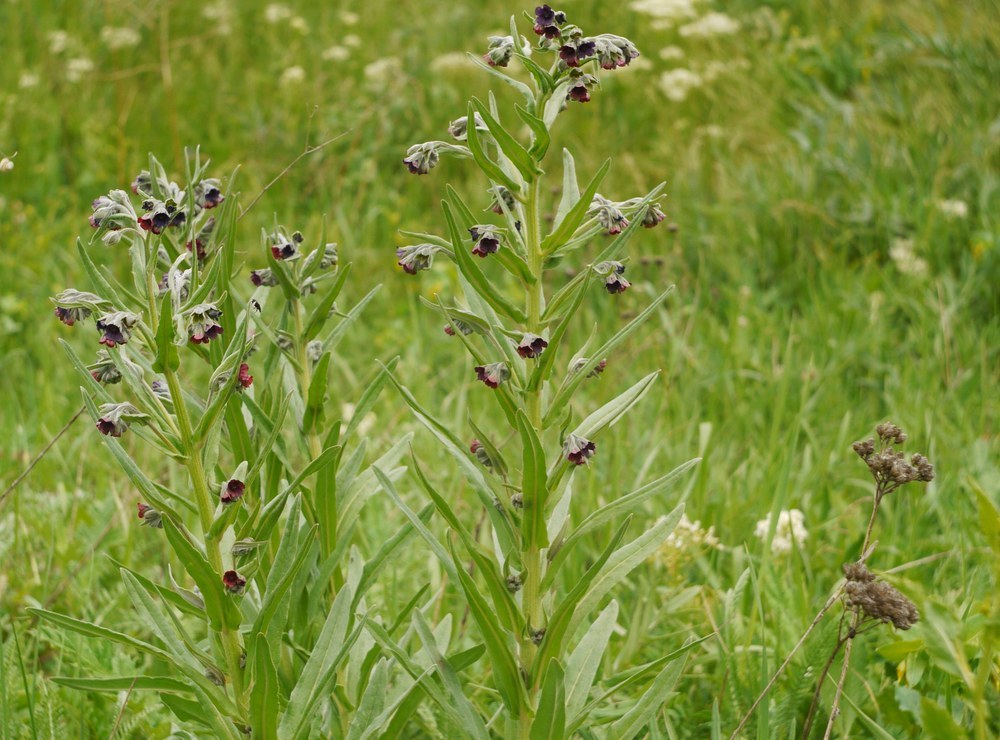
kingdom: Plantae
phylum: Tracheophyta
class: Magnoliopsida
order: Boraginales
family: Boraginaceae
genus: Cynoglossum
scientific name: Cynoglossum officinale
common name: Hound's-tongue
